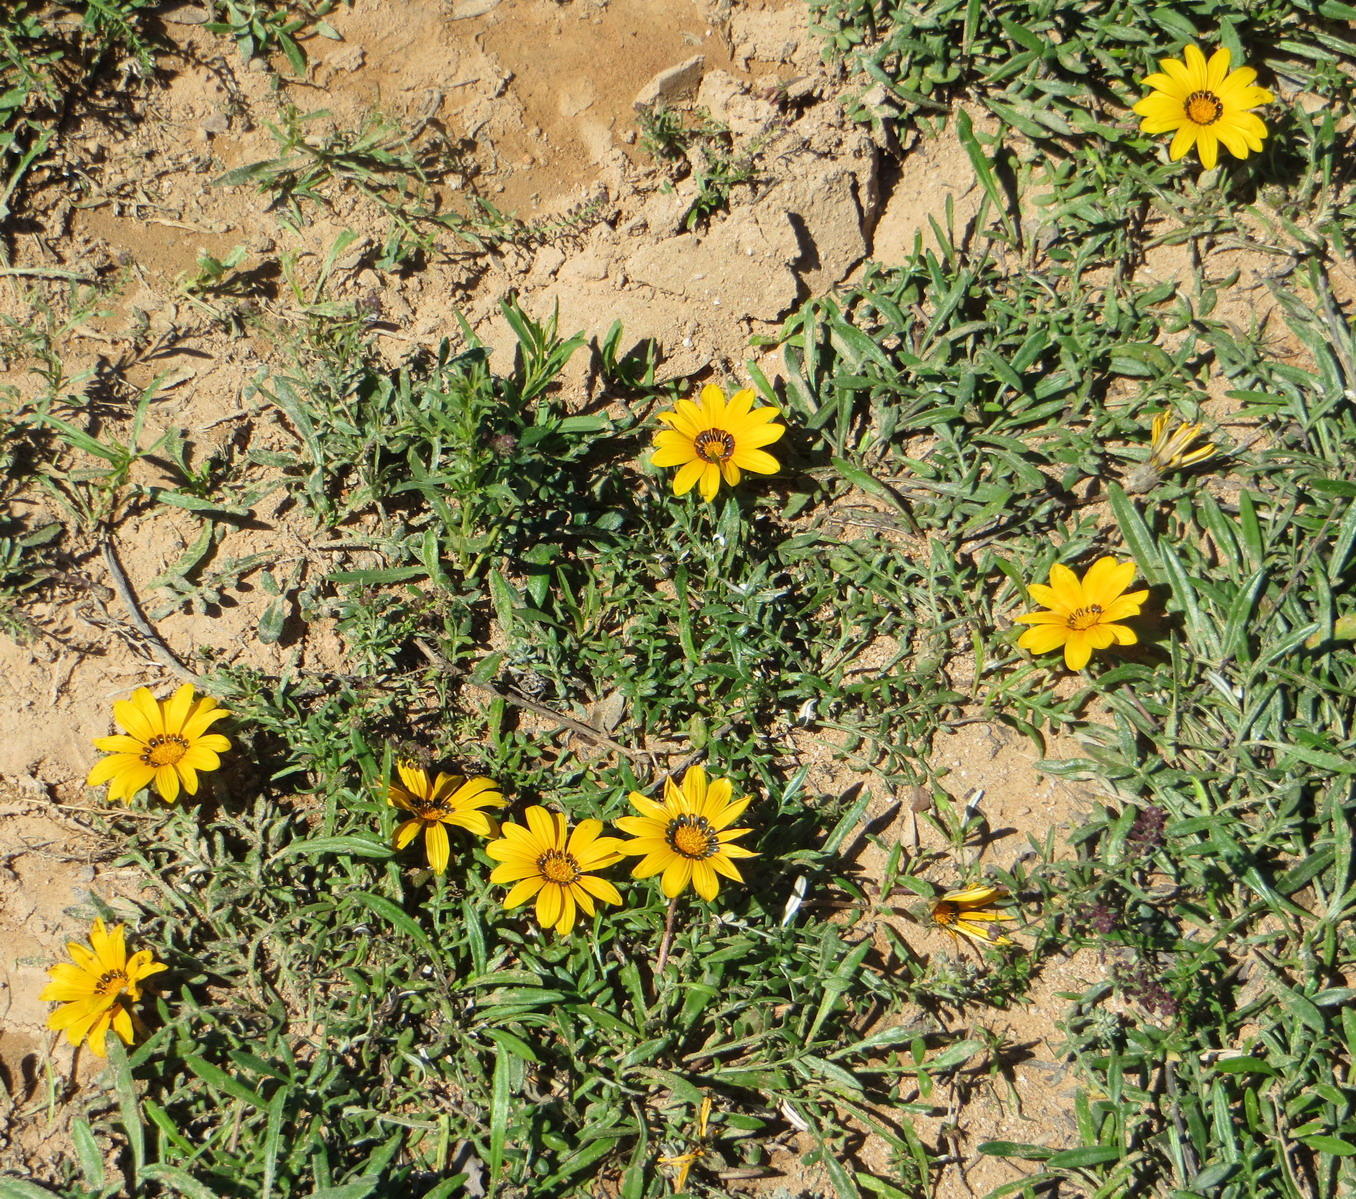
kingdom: Plantae
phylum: Tracheophyta
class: Magnoliopsida
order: Asterales
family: Asteraceae
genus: Gazania
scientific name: Gazania krebsiana
